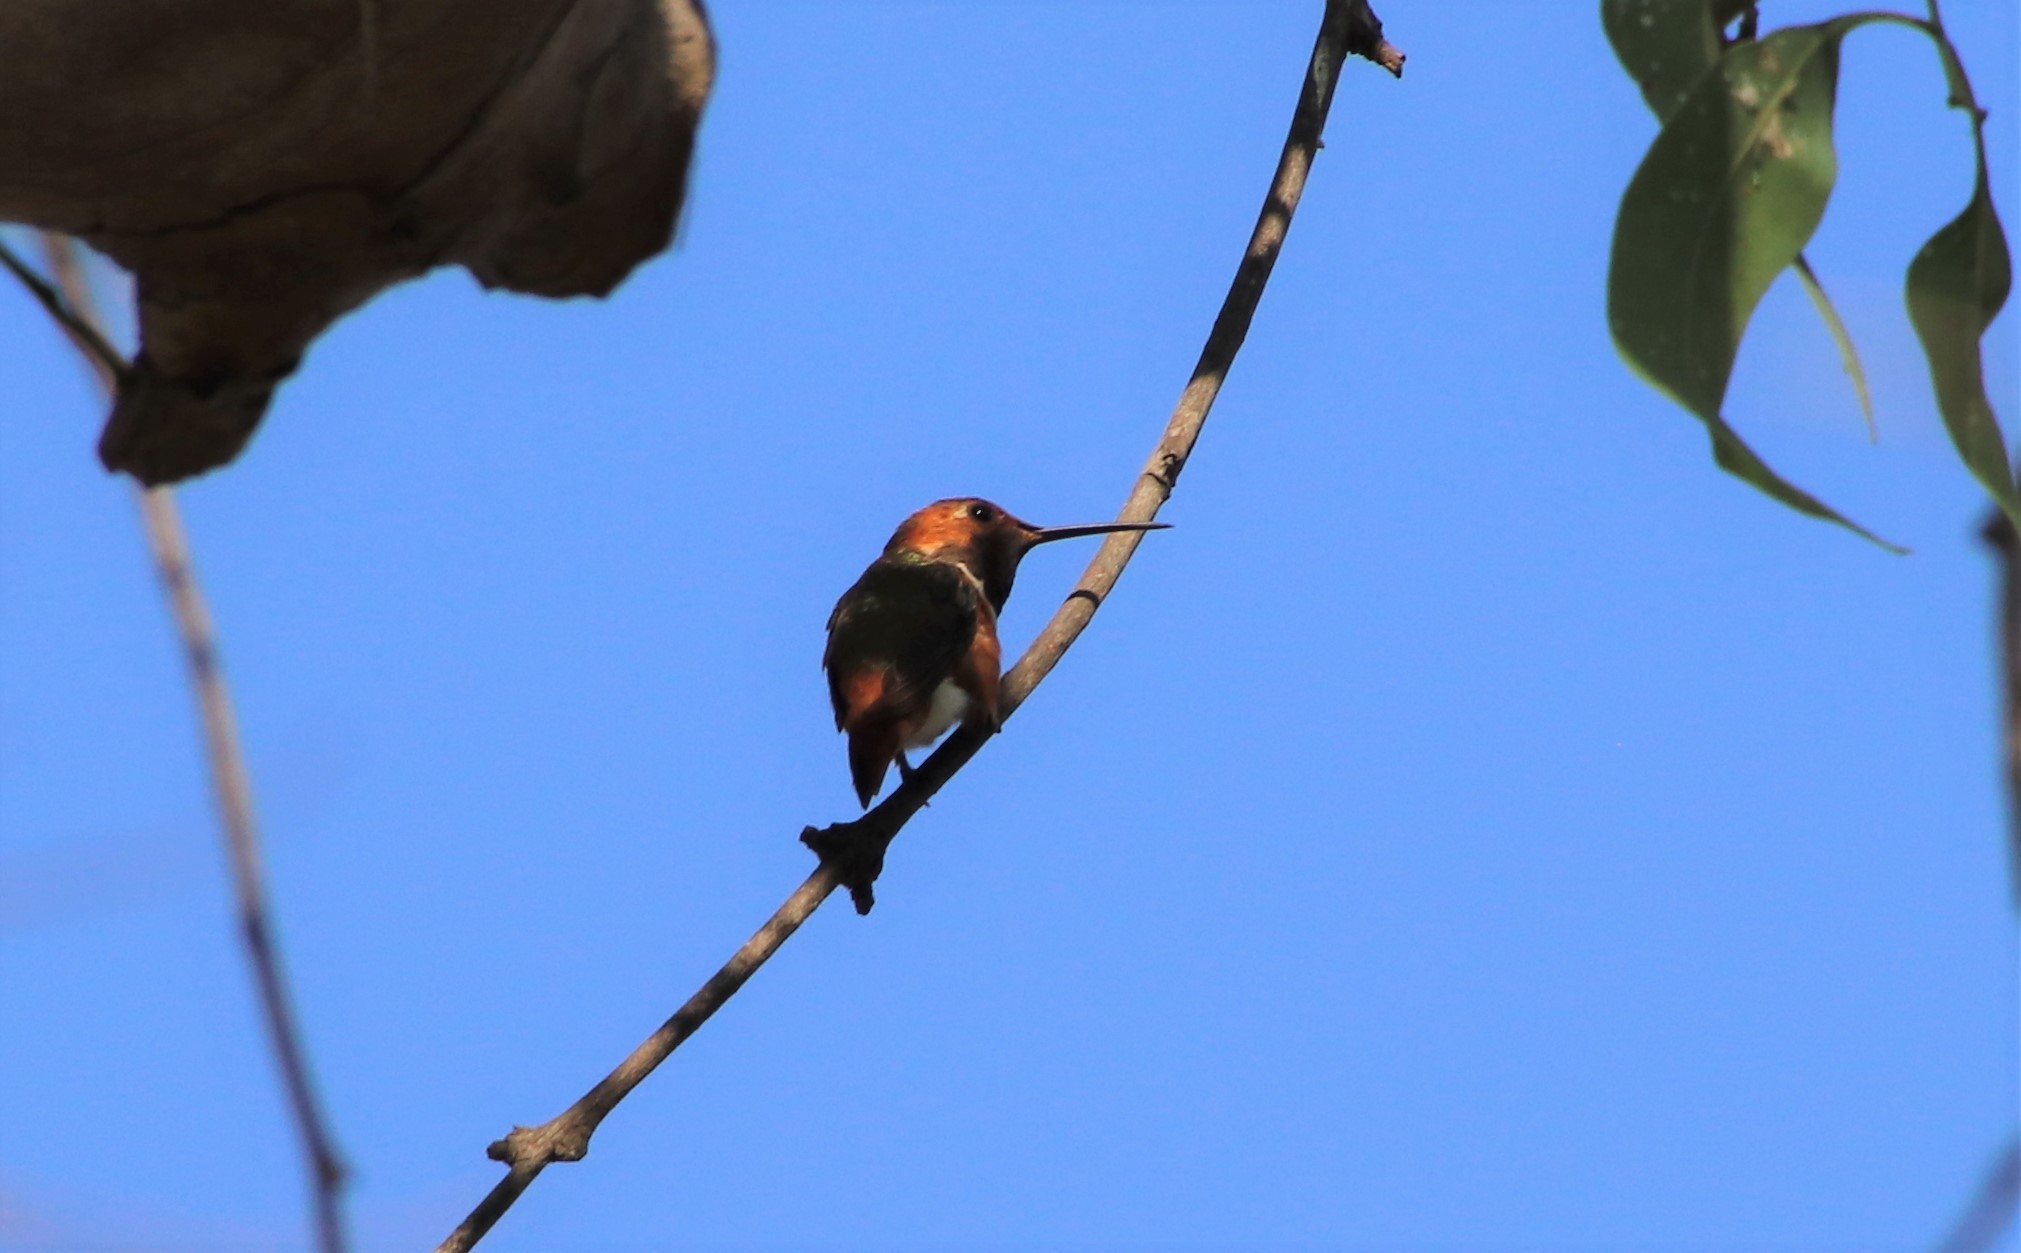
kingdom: Animalia
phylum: Chordata
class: Aves
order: Apodiformes
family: Trochilidae
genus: Selasphorus
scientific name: Selasphorus
